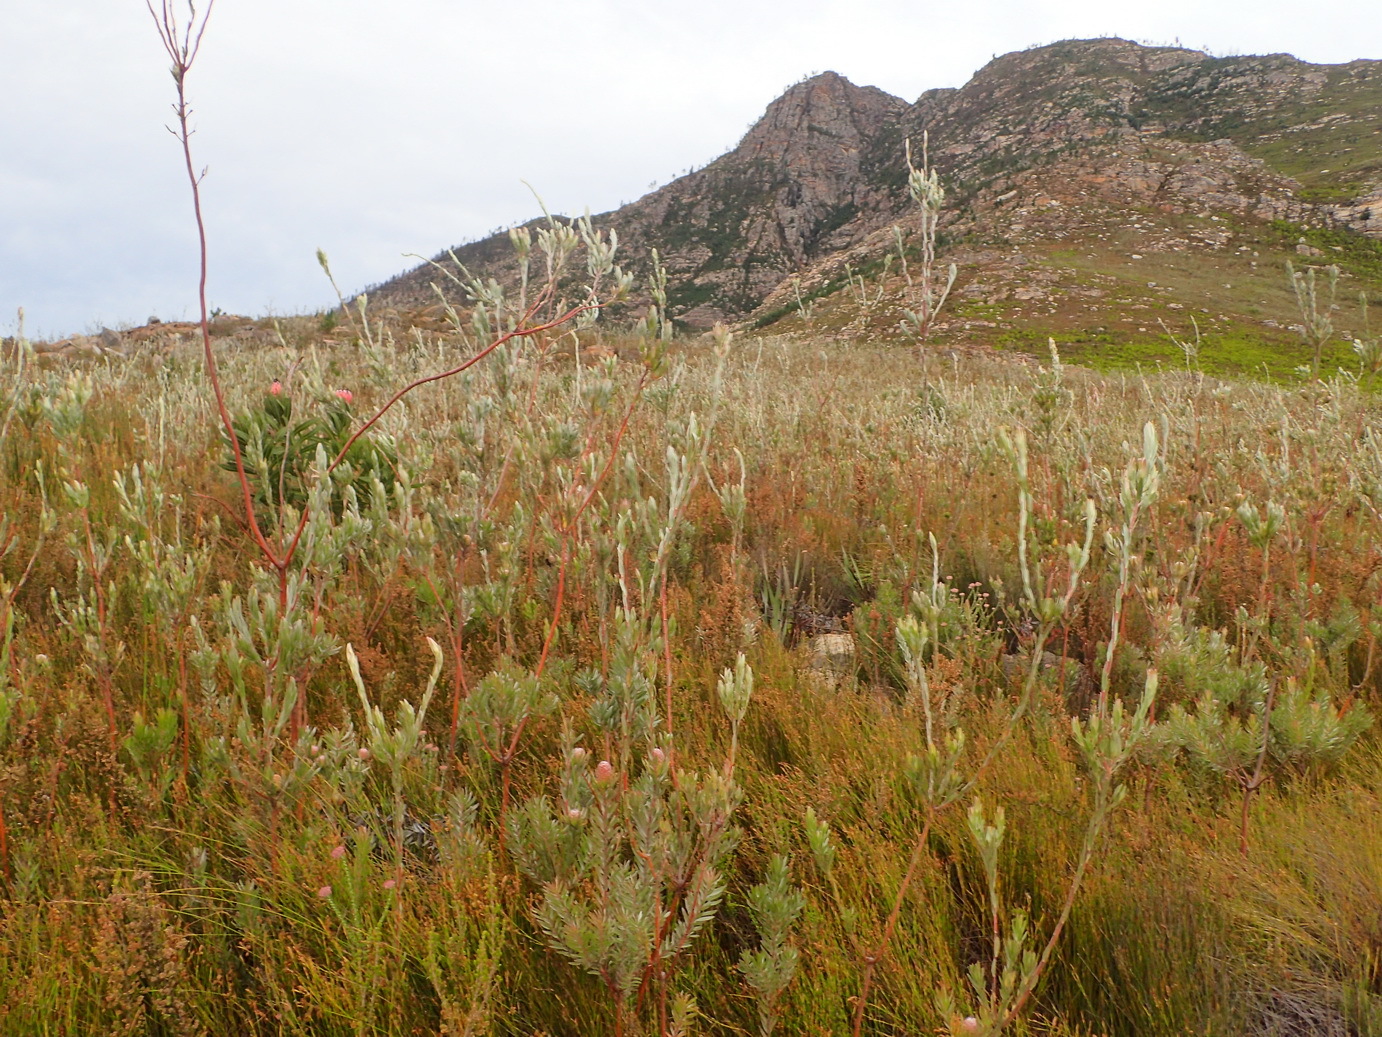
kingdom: Plantae
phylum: Tracheophyta
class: Magnoliopsida
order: Proteales
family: Proteaceae
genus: Leucadendron
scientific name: Leucadendron uliginosum
